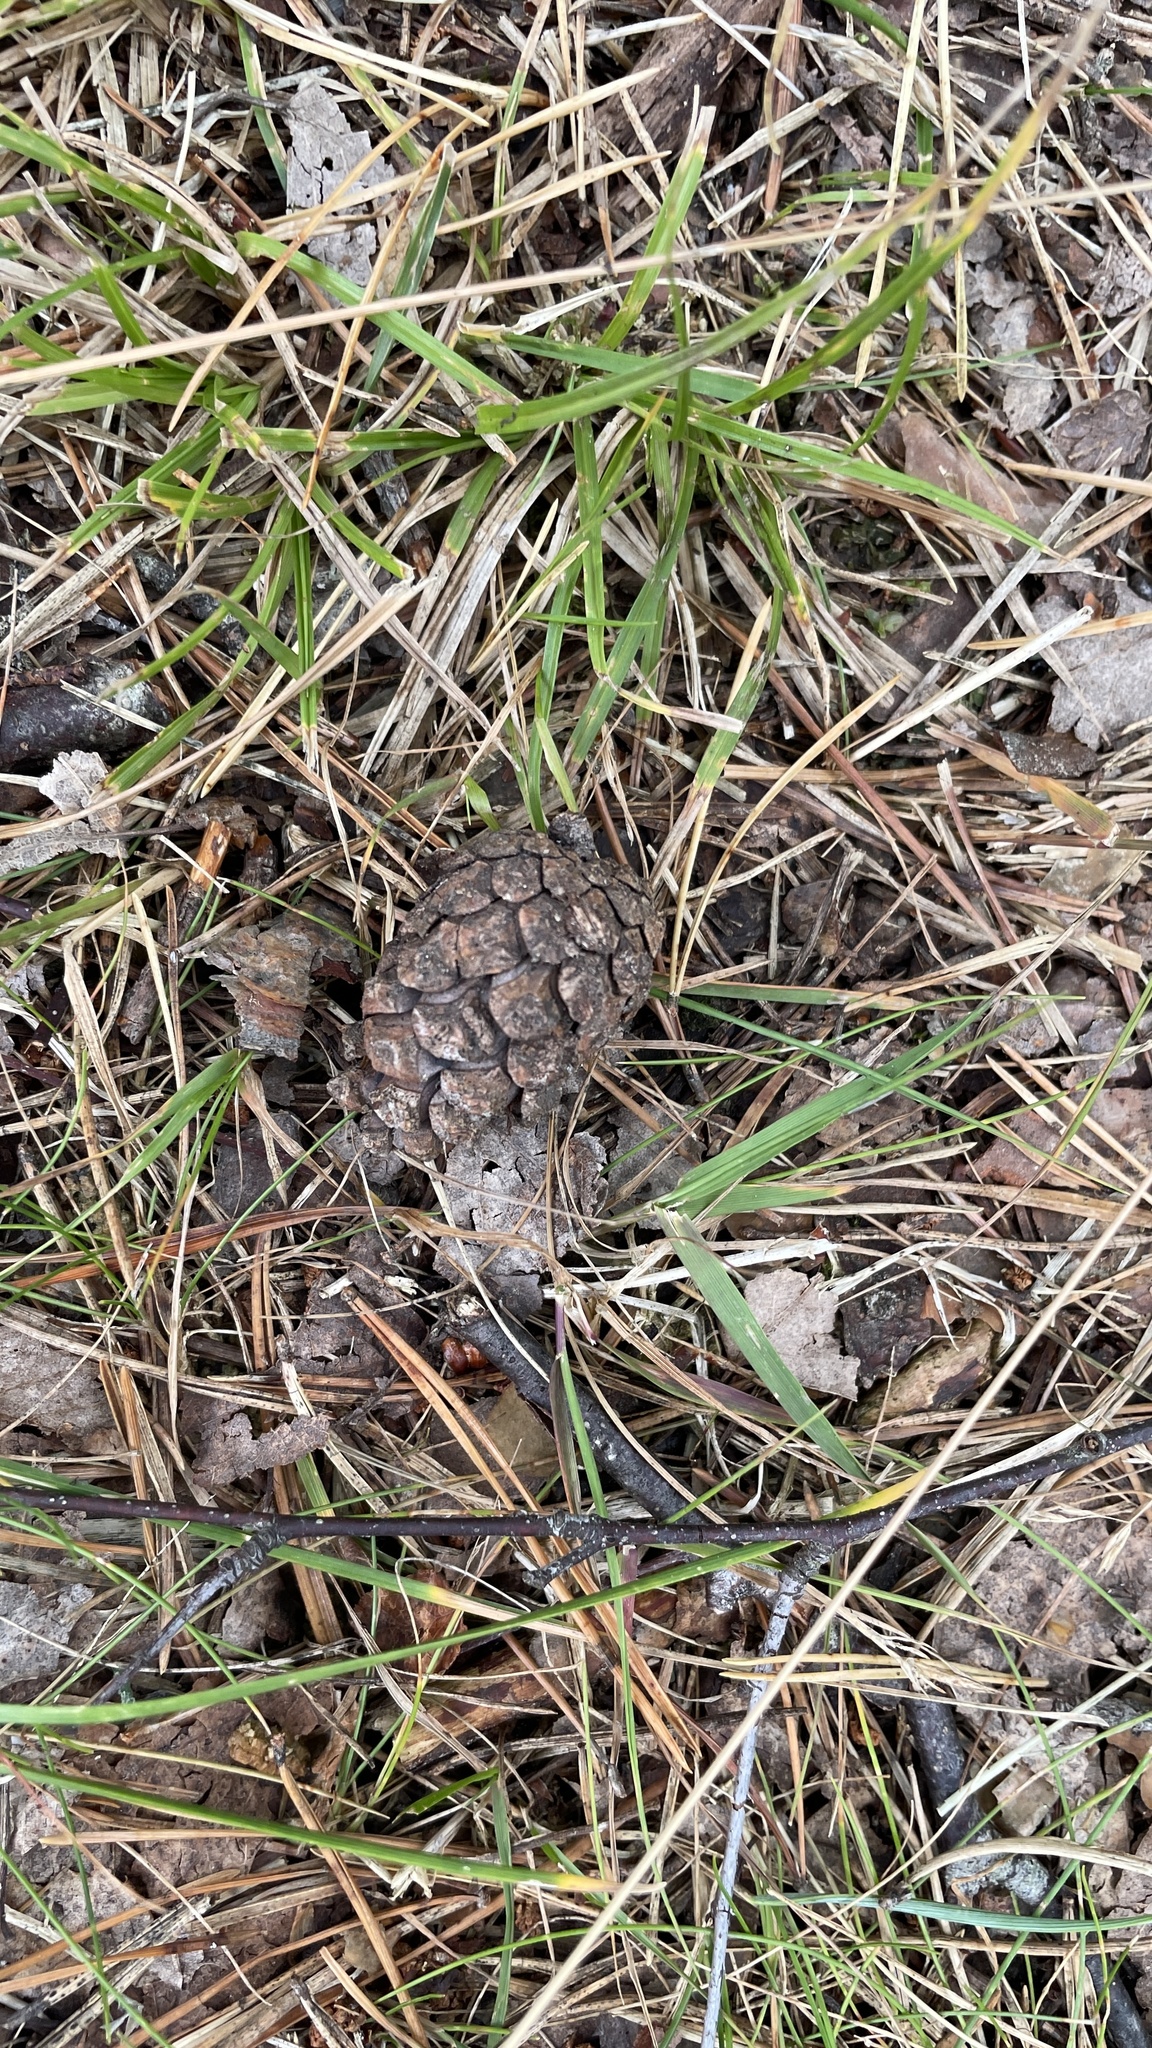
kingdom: Plantae
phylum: Tracheophyta
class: Pinopsida
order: Pinales
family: Pinaceae
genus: Pinus
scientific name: Pinus sylvestris
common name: Scots pine
